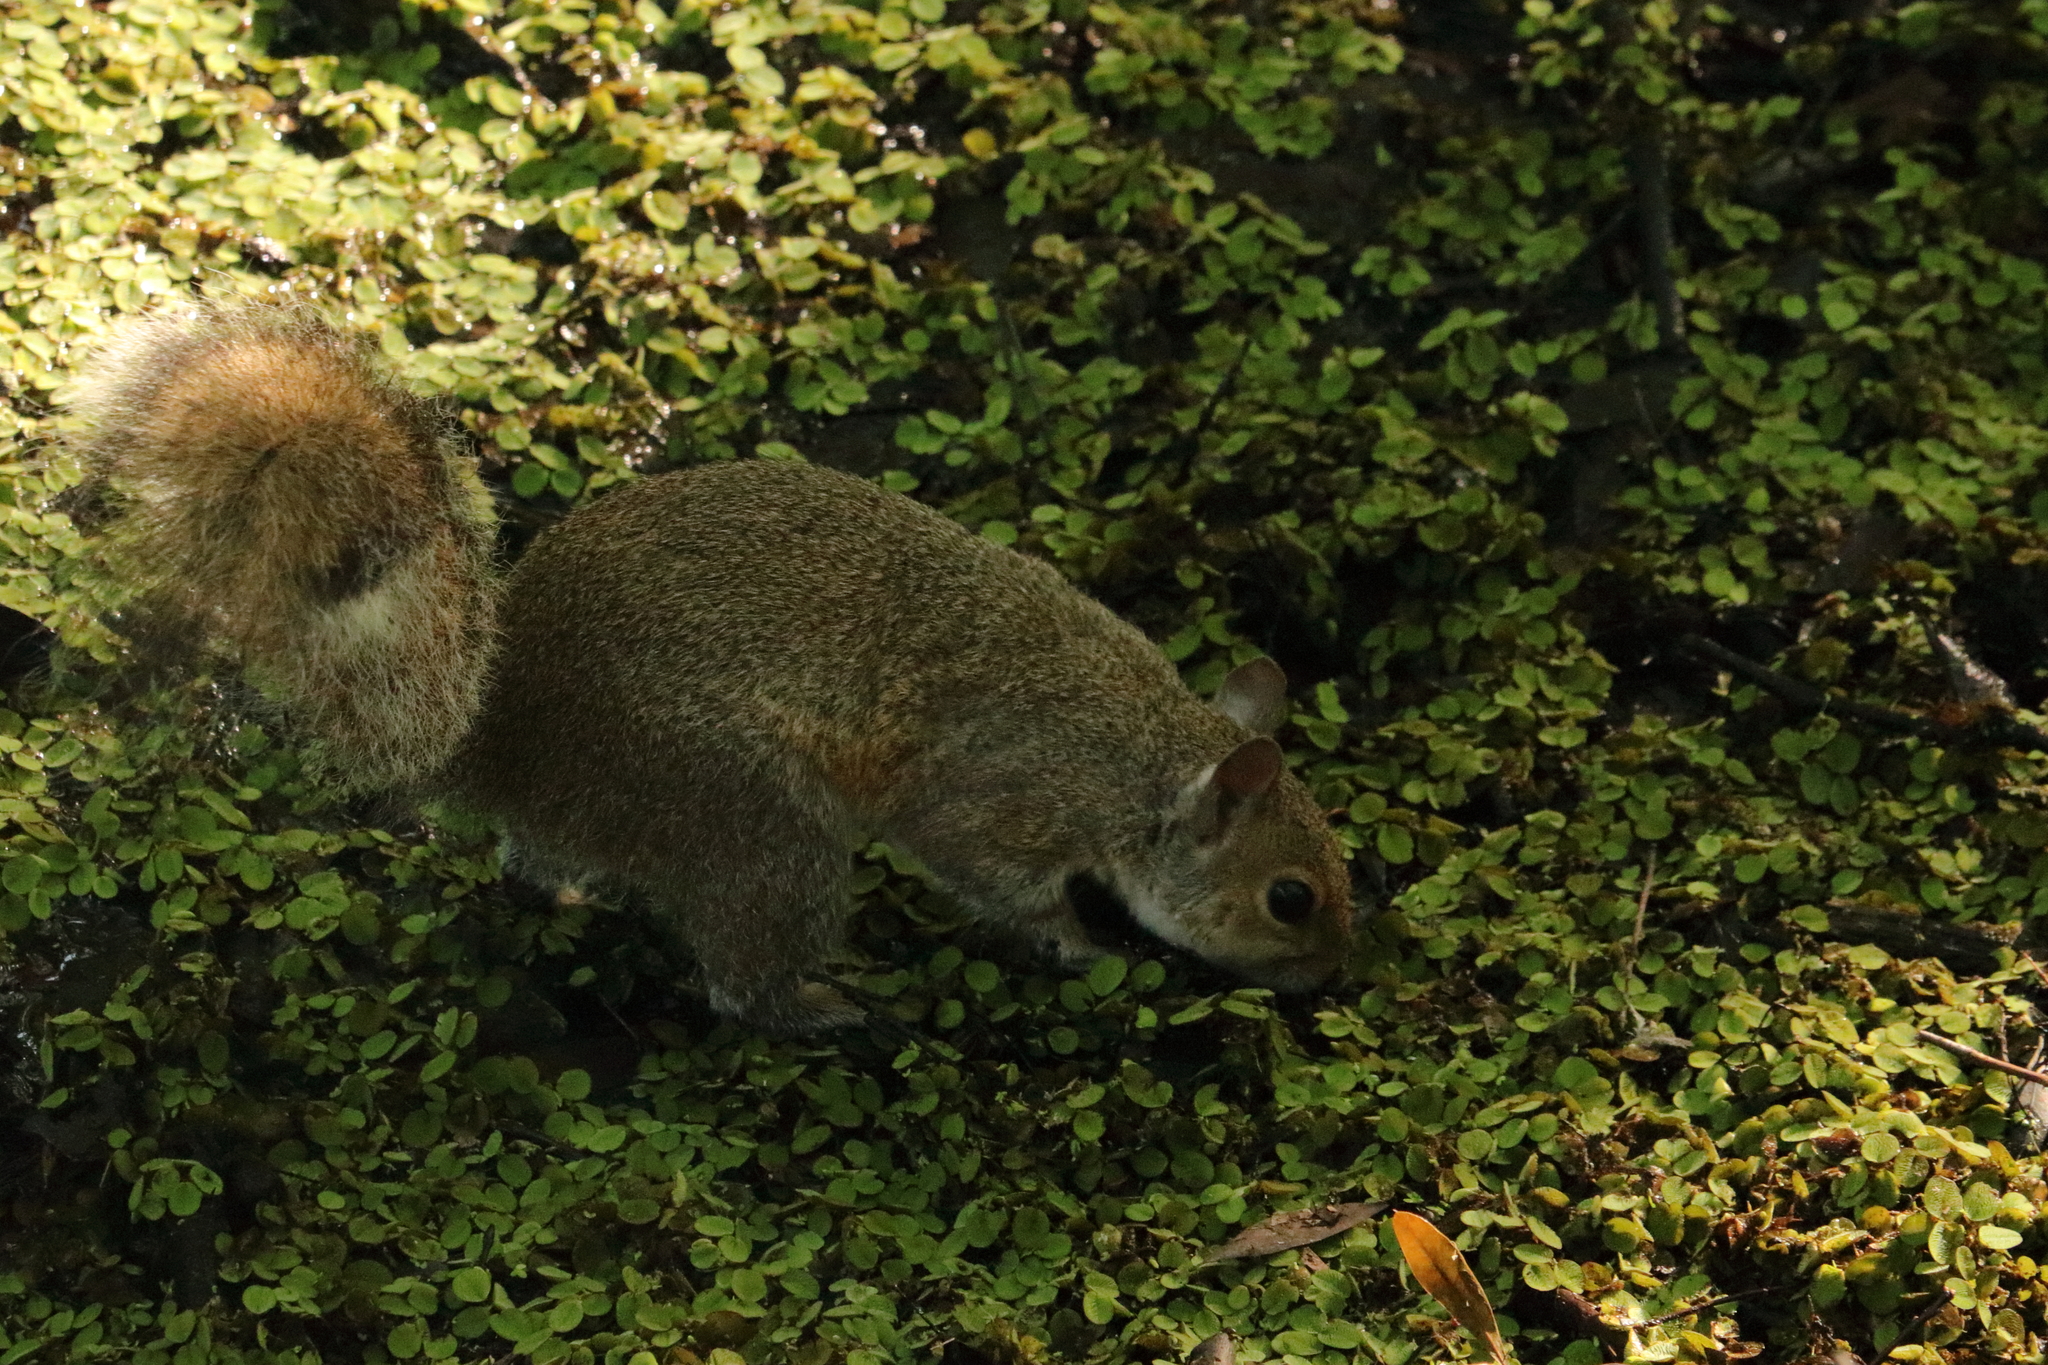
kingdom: Animalia
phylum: Chordata
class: Mammalia
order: Rodentia
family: Sciuridae
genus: Sciurus
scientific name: Sciurus carolinensis
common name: Eastern gray squirrel
